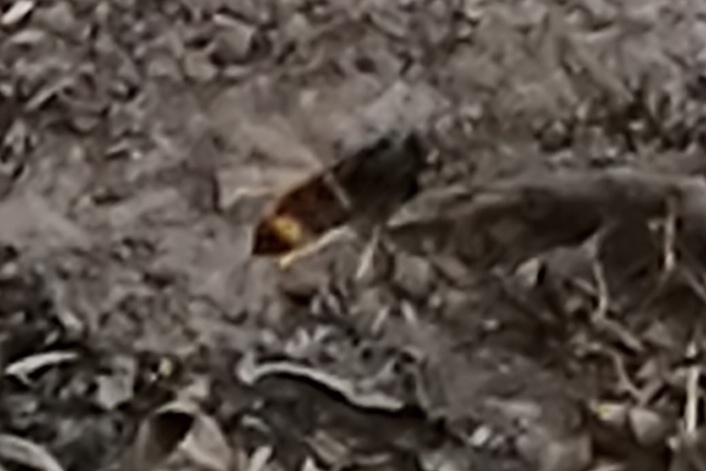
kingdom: Animalia
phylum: Arthropoda
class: Insecta
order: Hymenoptera
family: Vespidae
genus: Vespa
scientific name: Vespa velutina
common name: Asian hornet
